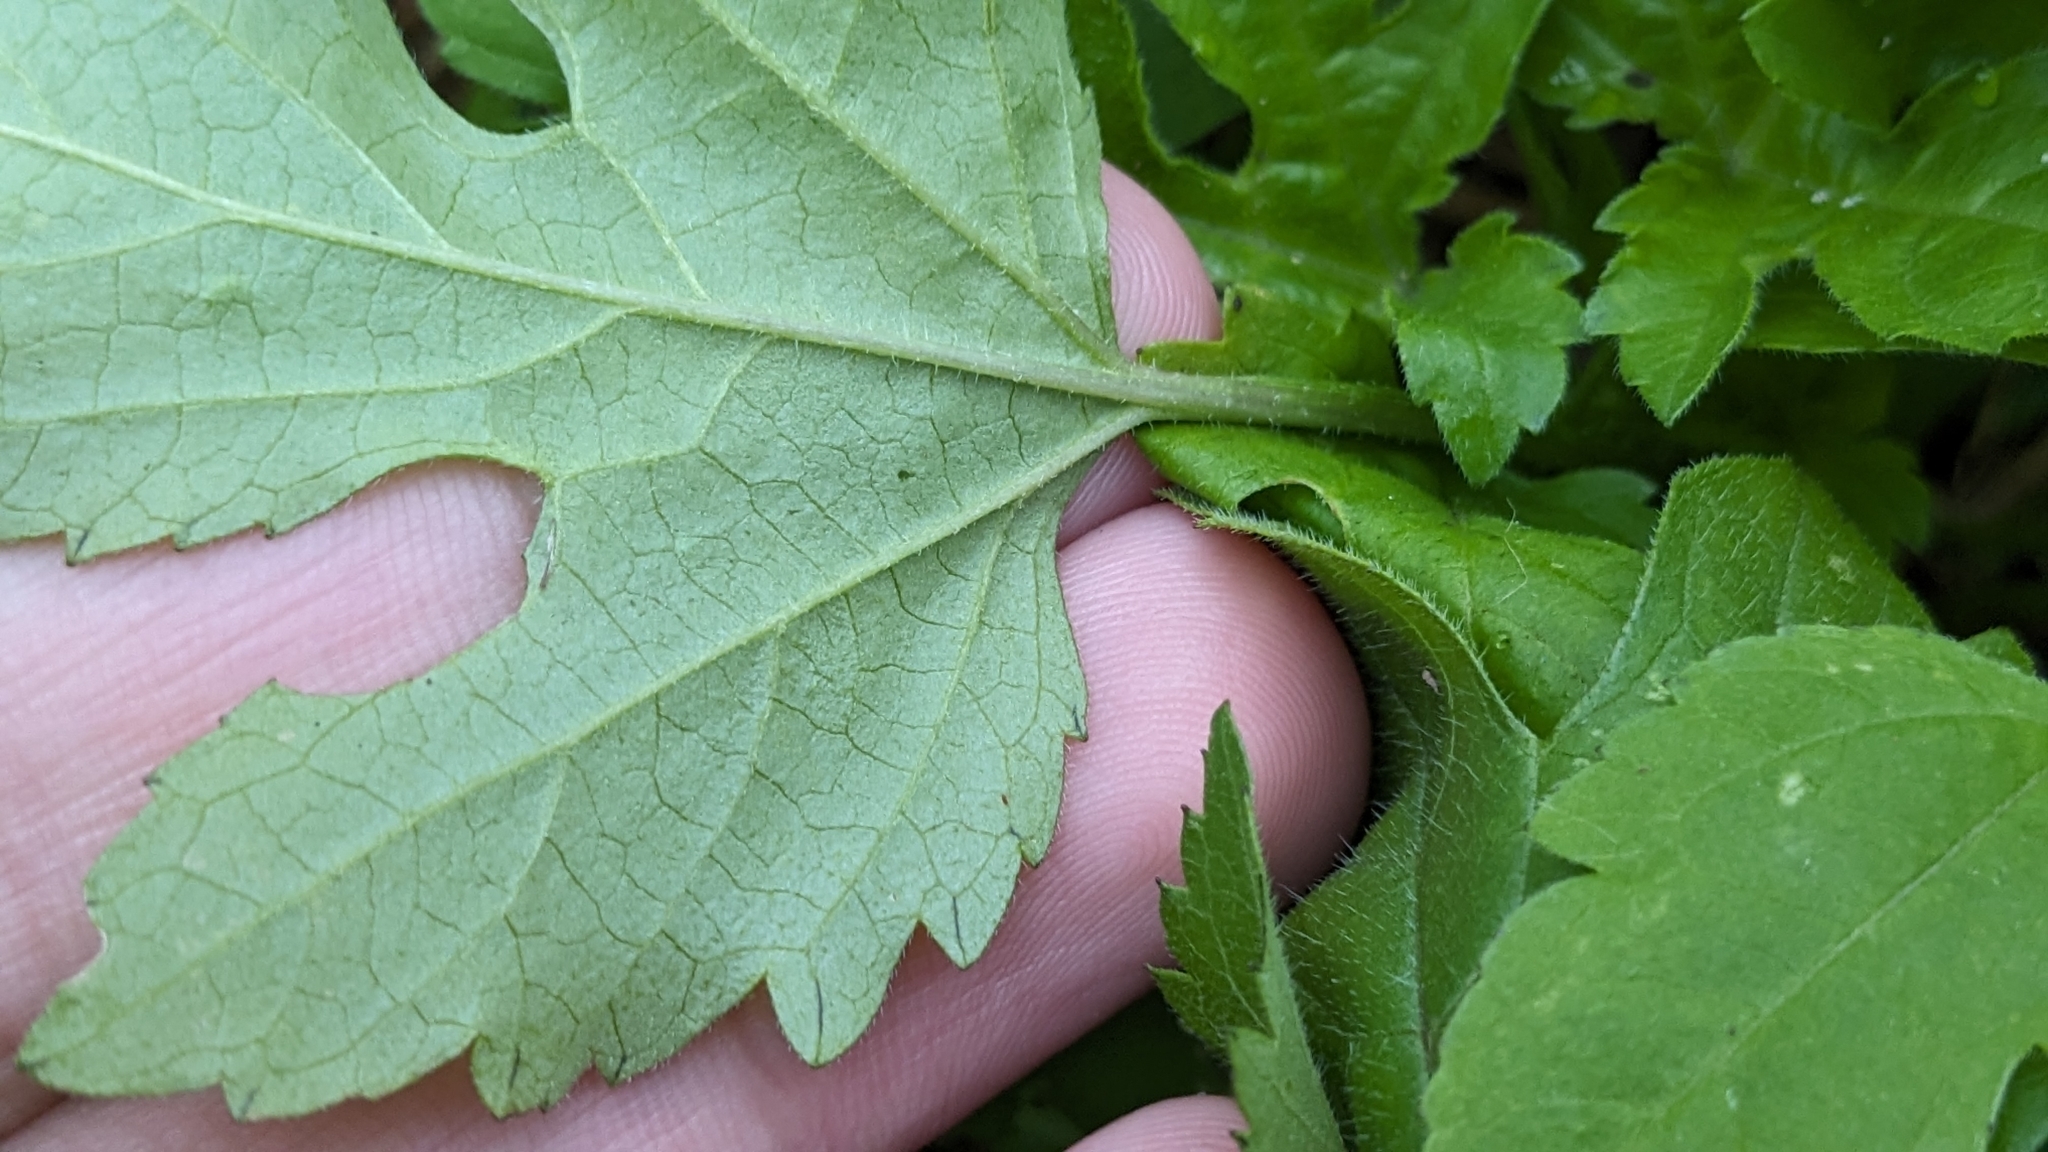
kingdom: Plantae
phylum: Tracheophyta
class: Magnoliopsida
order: Asterales
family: Asteraceae
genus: Ambrosia
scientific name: Ambrosia trifida
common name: Giant ragweed
